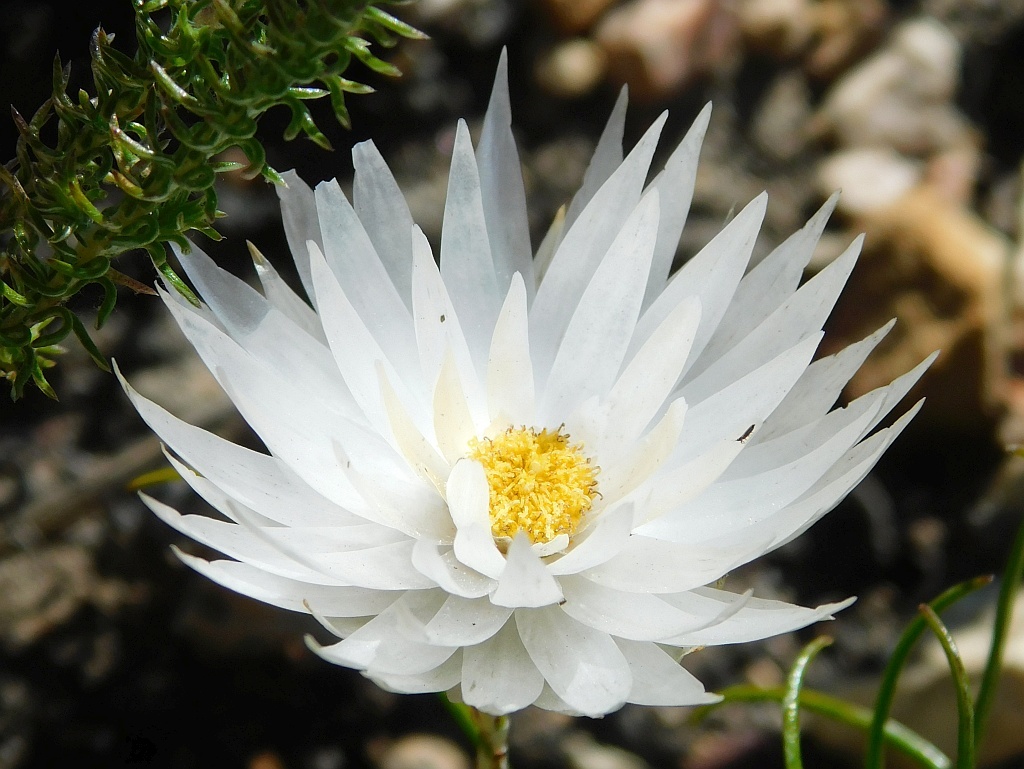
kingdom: Plantae
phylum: Tracheophyta
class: Magnoliopsida
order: Asterales
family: Asteraceae
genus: Edmondia
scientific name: Edmondia pinifolia
